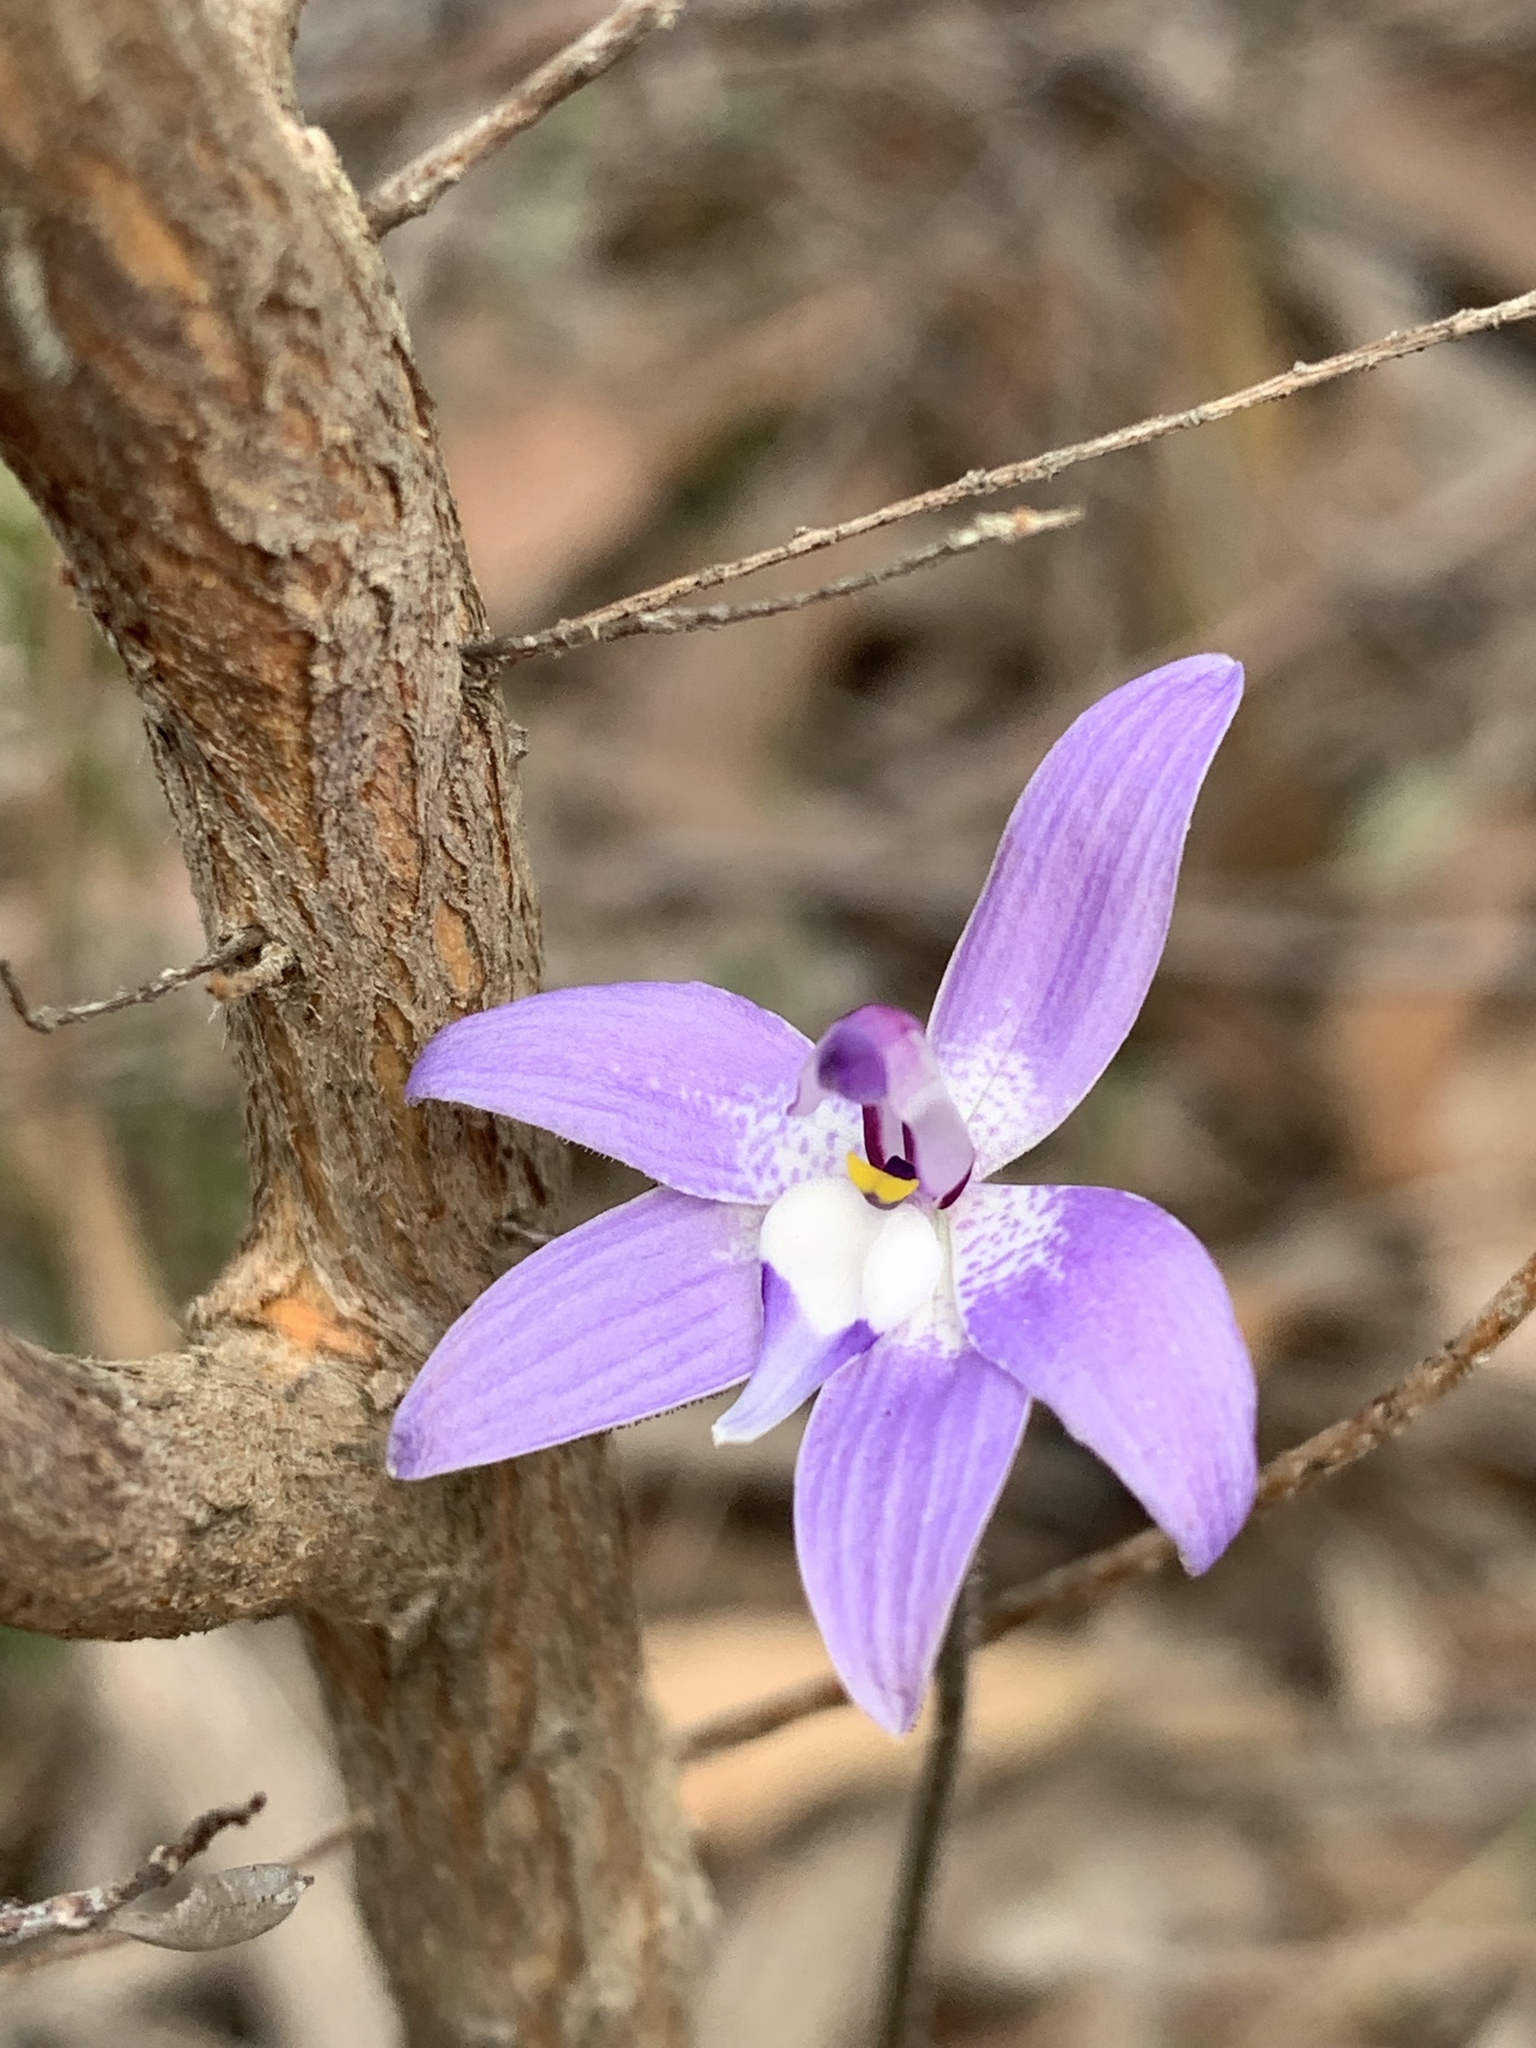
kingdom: Plantae
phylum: Tracheophyta
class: Liliopsida
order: Asparagales
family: Orchidaceae
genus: Caladenia
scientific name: Caladenia major
